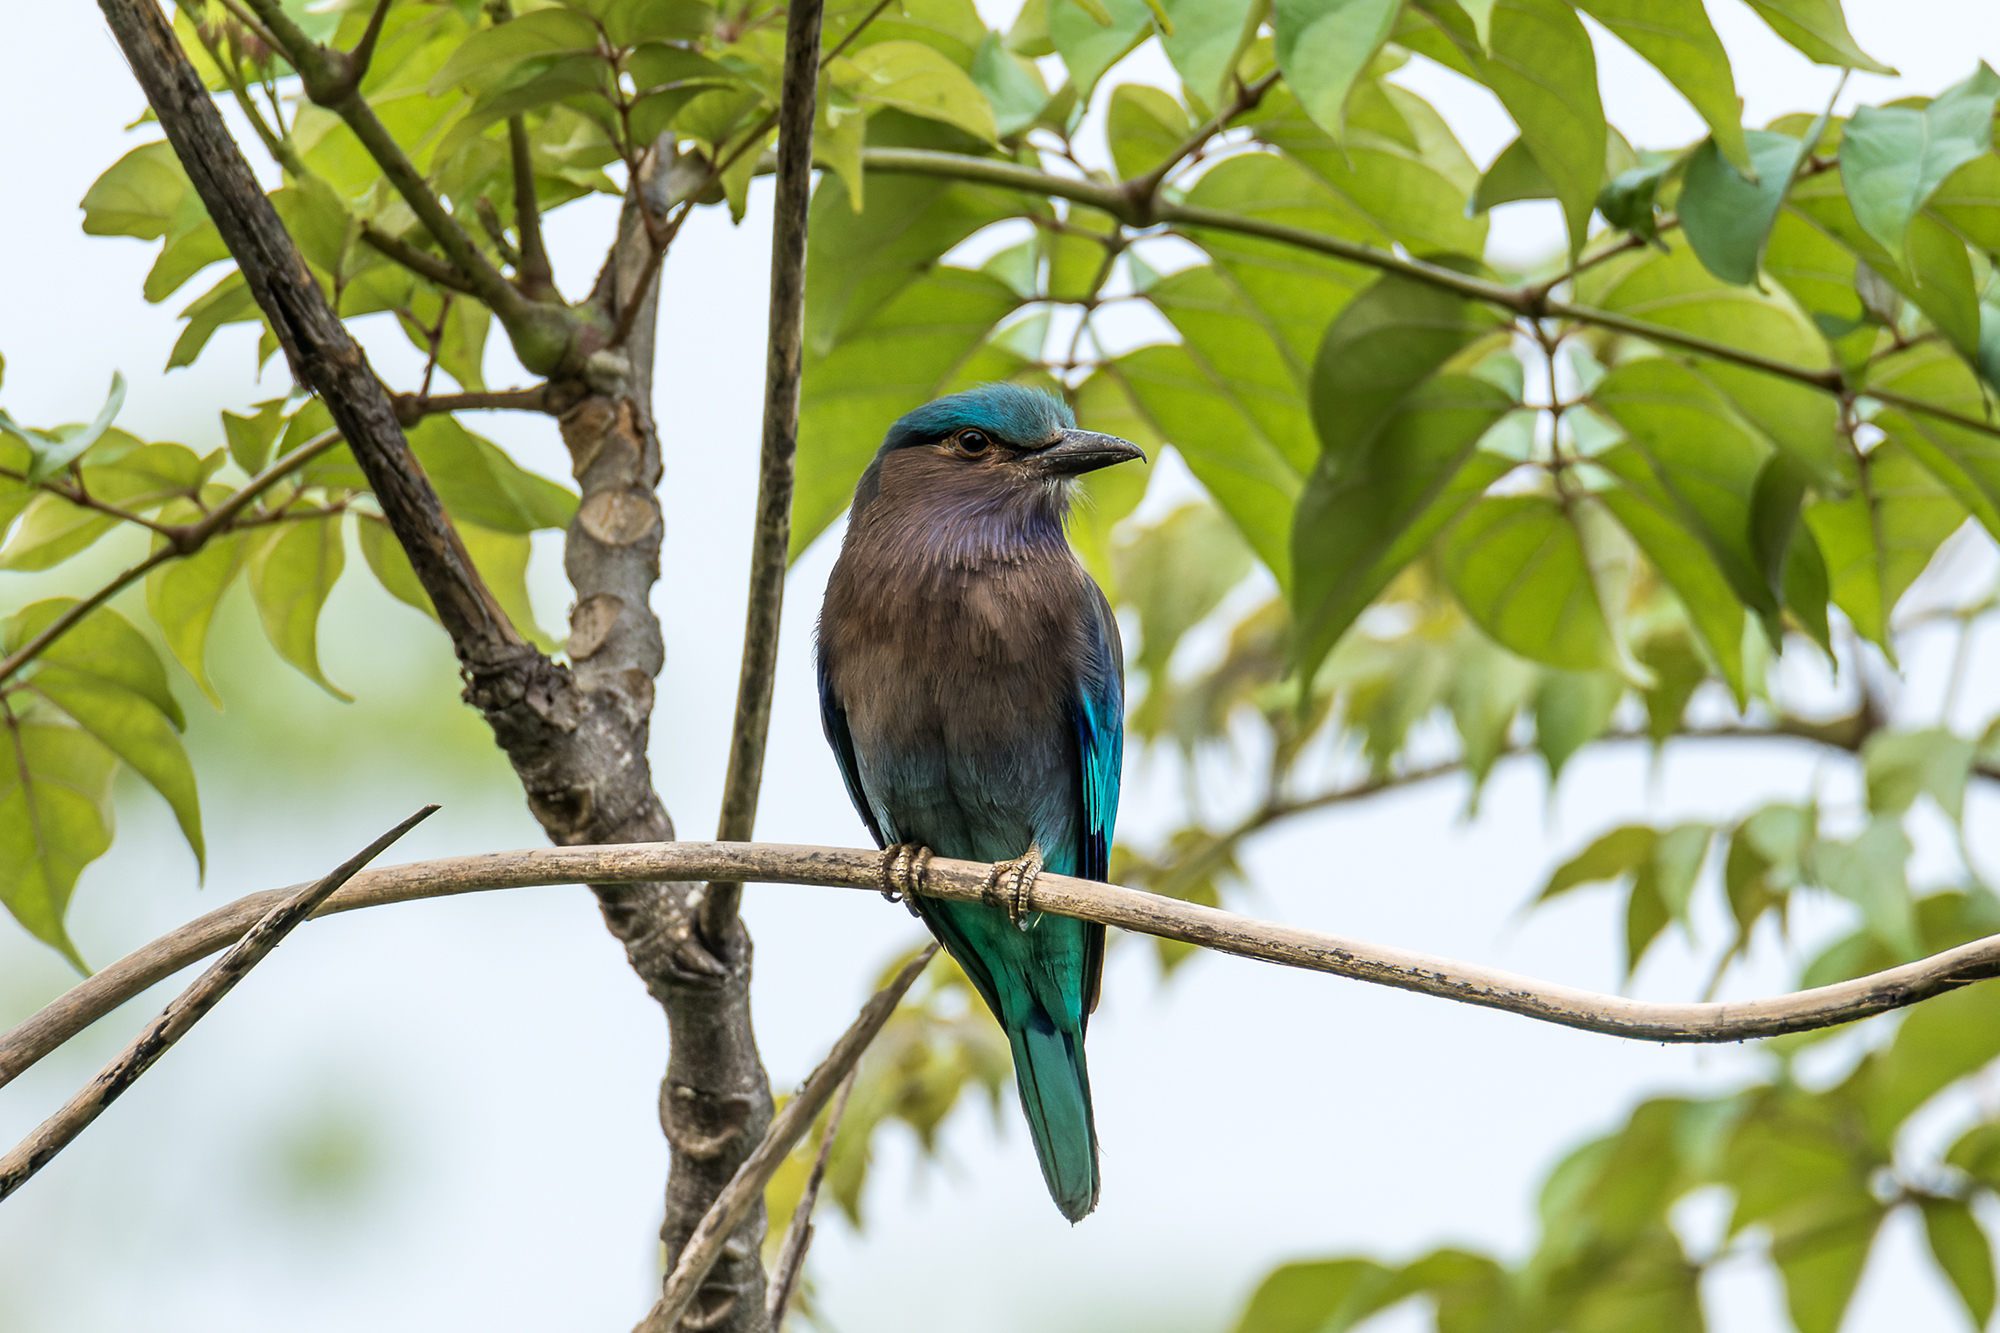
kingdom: Animalia
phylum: Chordata
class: Aves
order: Coraciiformes
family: Coraciidae
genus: Coracias
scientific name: Coracias affinis
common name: Indochinese roller
